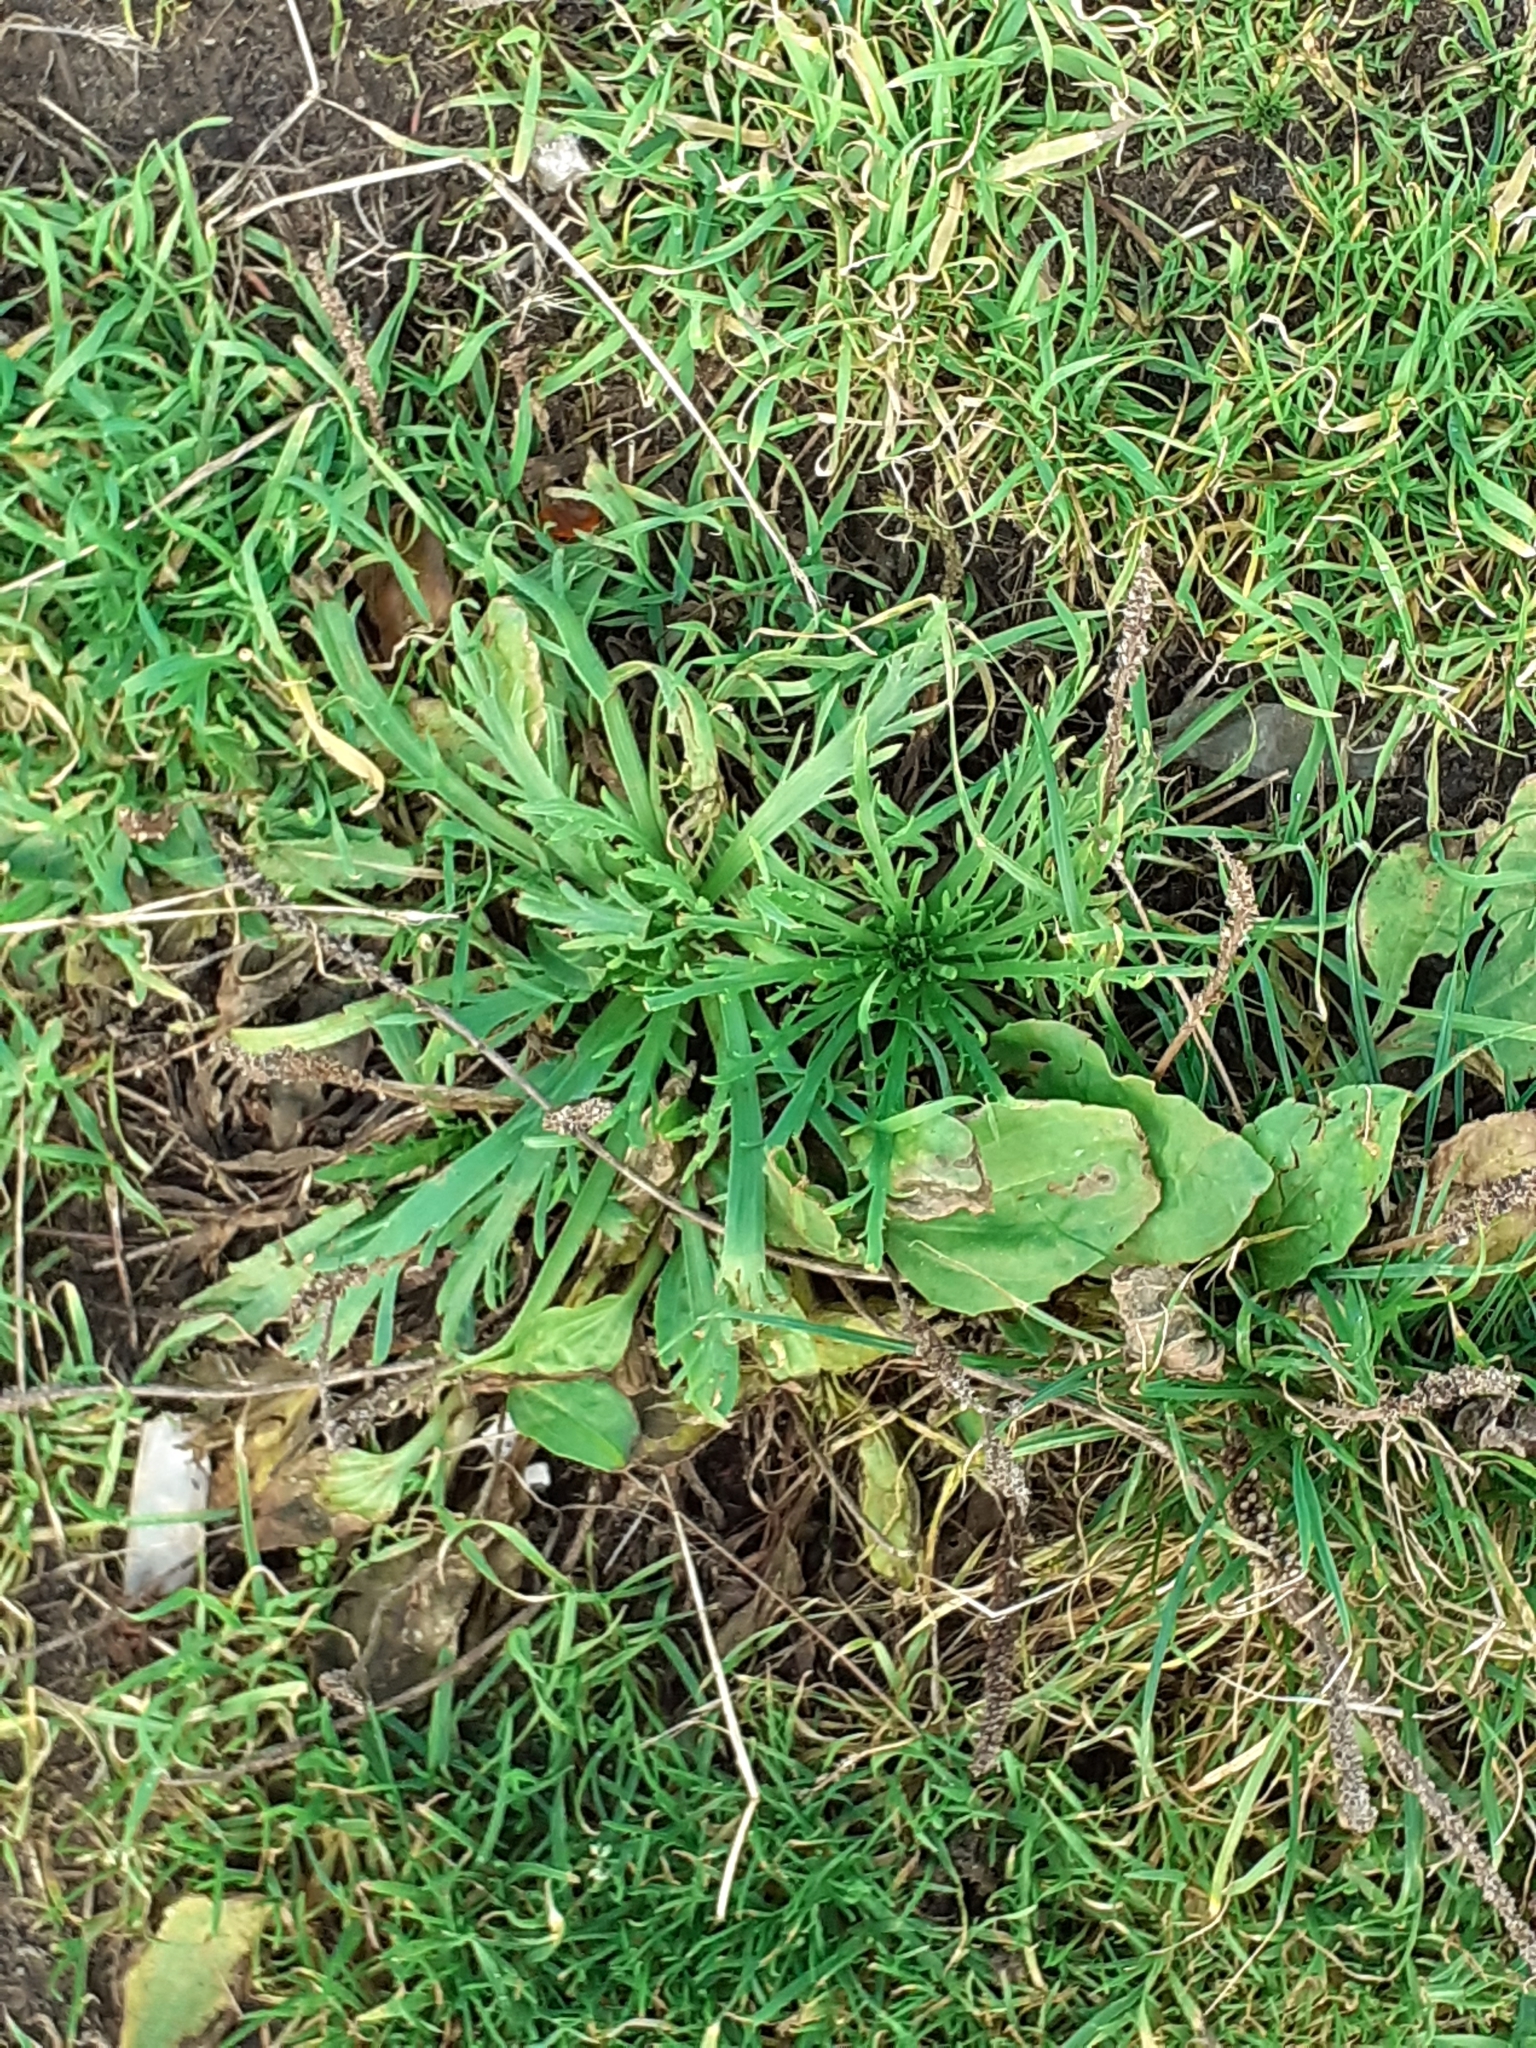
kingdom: Plantae
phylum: Tracheophyta
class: Magnoliopsida
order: Lamiales
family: Plantaginaceae
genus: Plantago
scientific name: Plantago coronopus
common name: Buck's-horn plantain
